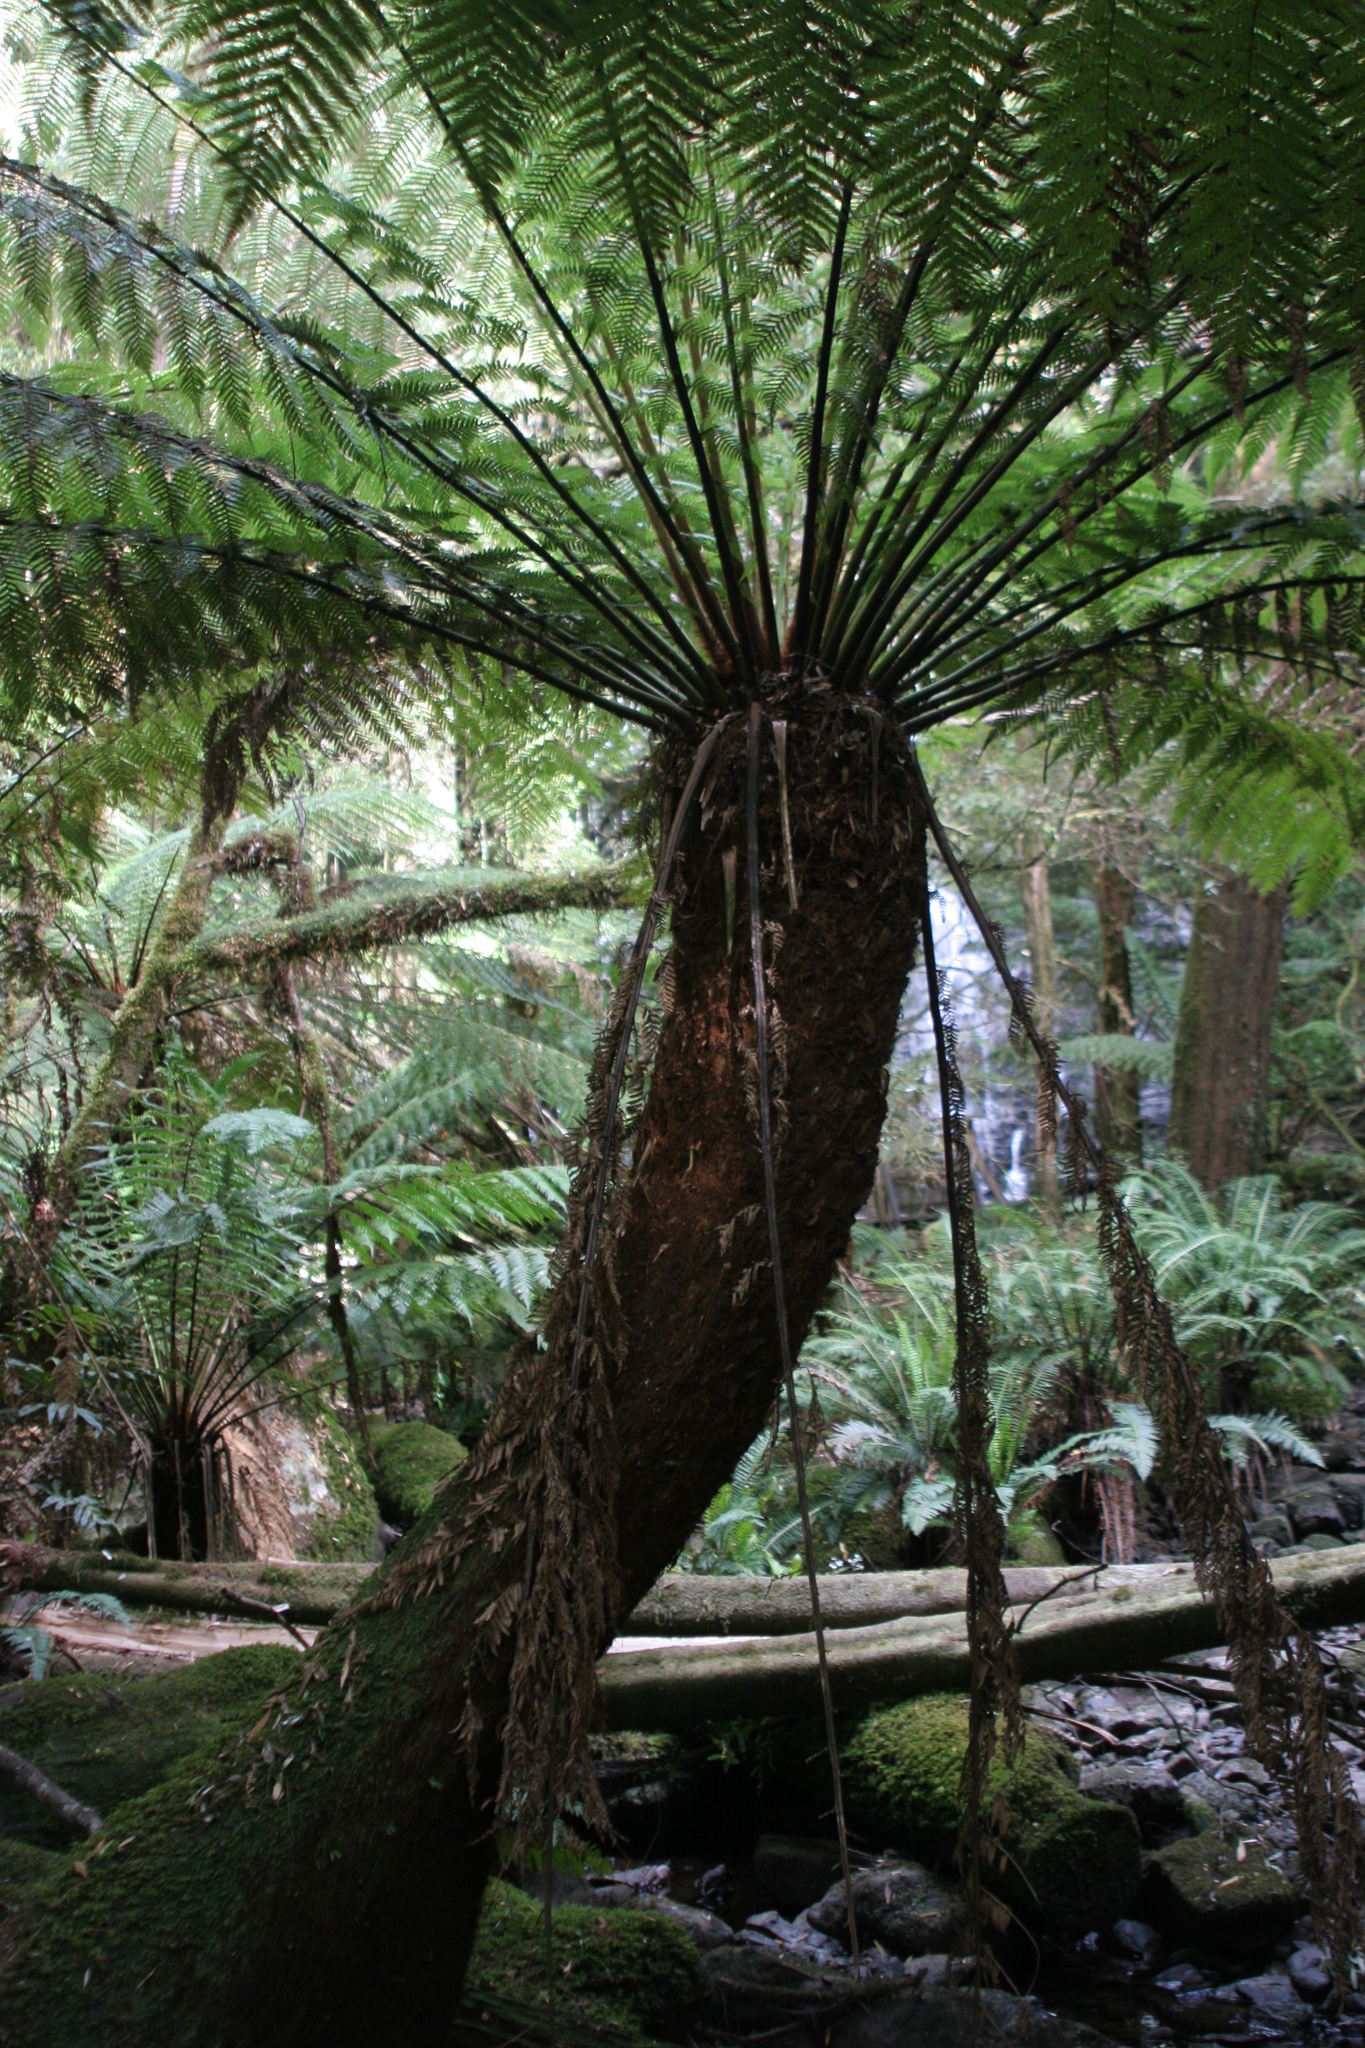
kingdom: Plantae
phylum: Tracheophyta
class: Polypodiopsida
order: Cyatheales
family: Dicksoniaceae
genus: Dicksonia
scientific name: Dicksonia antarctica
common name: Australian treefern
